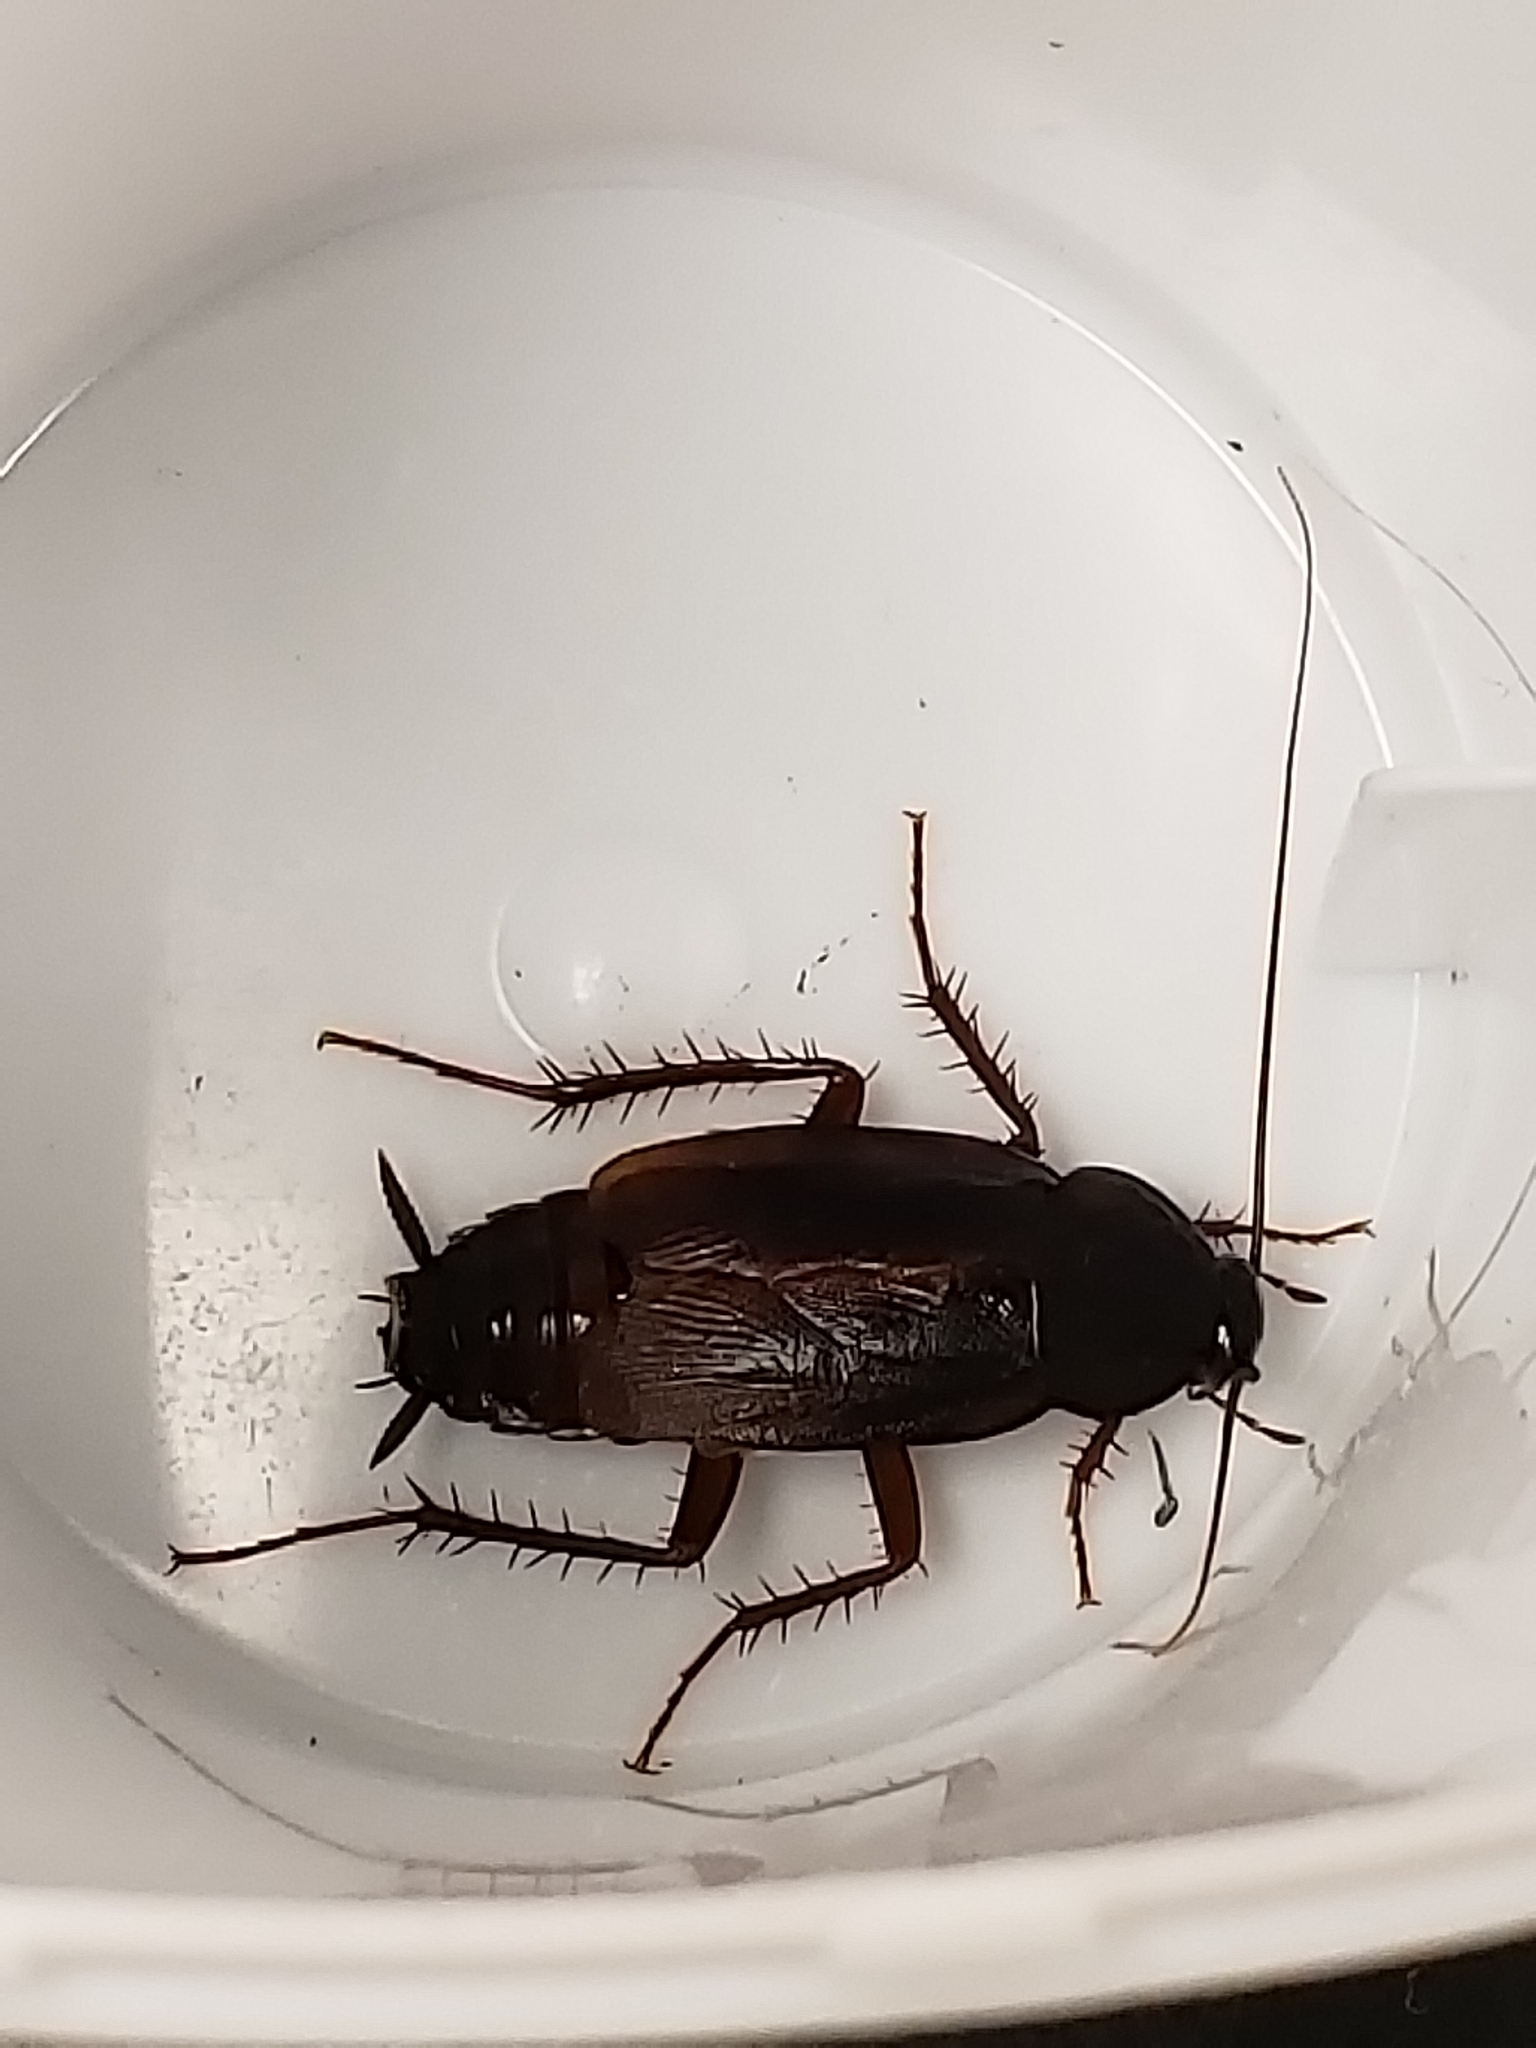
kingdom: Animalia
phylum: Arthropoda
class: Insecta
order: Blattodea
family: Blattidae
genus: Blatta
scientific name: Blatta orientalis
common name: Oriental cockroach
